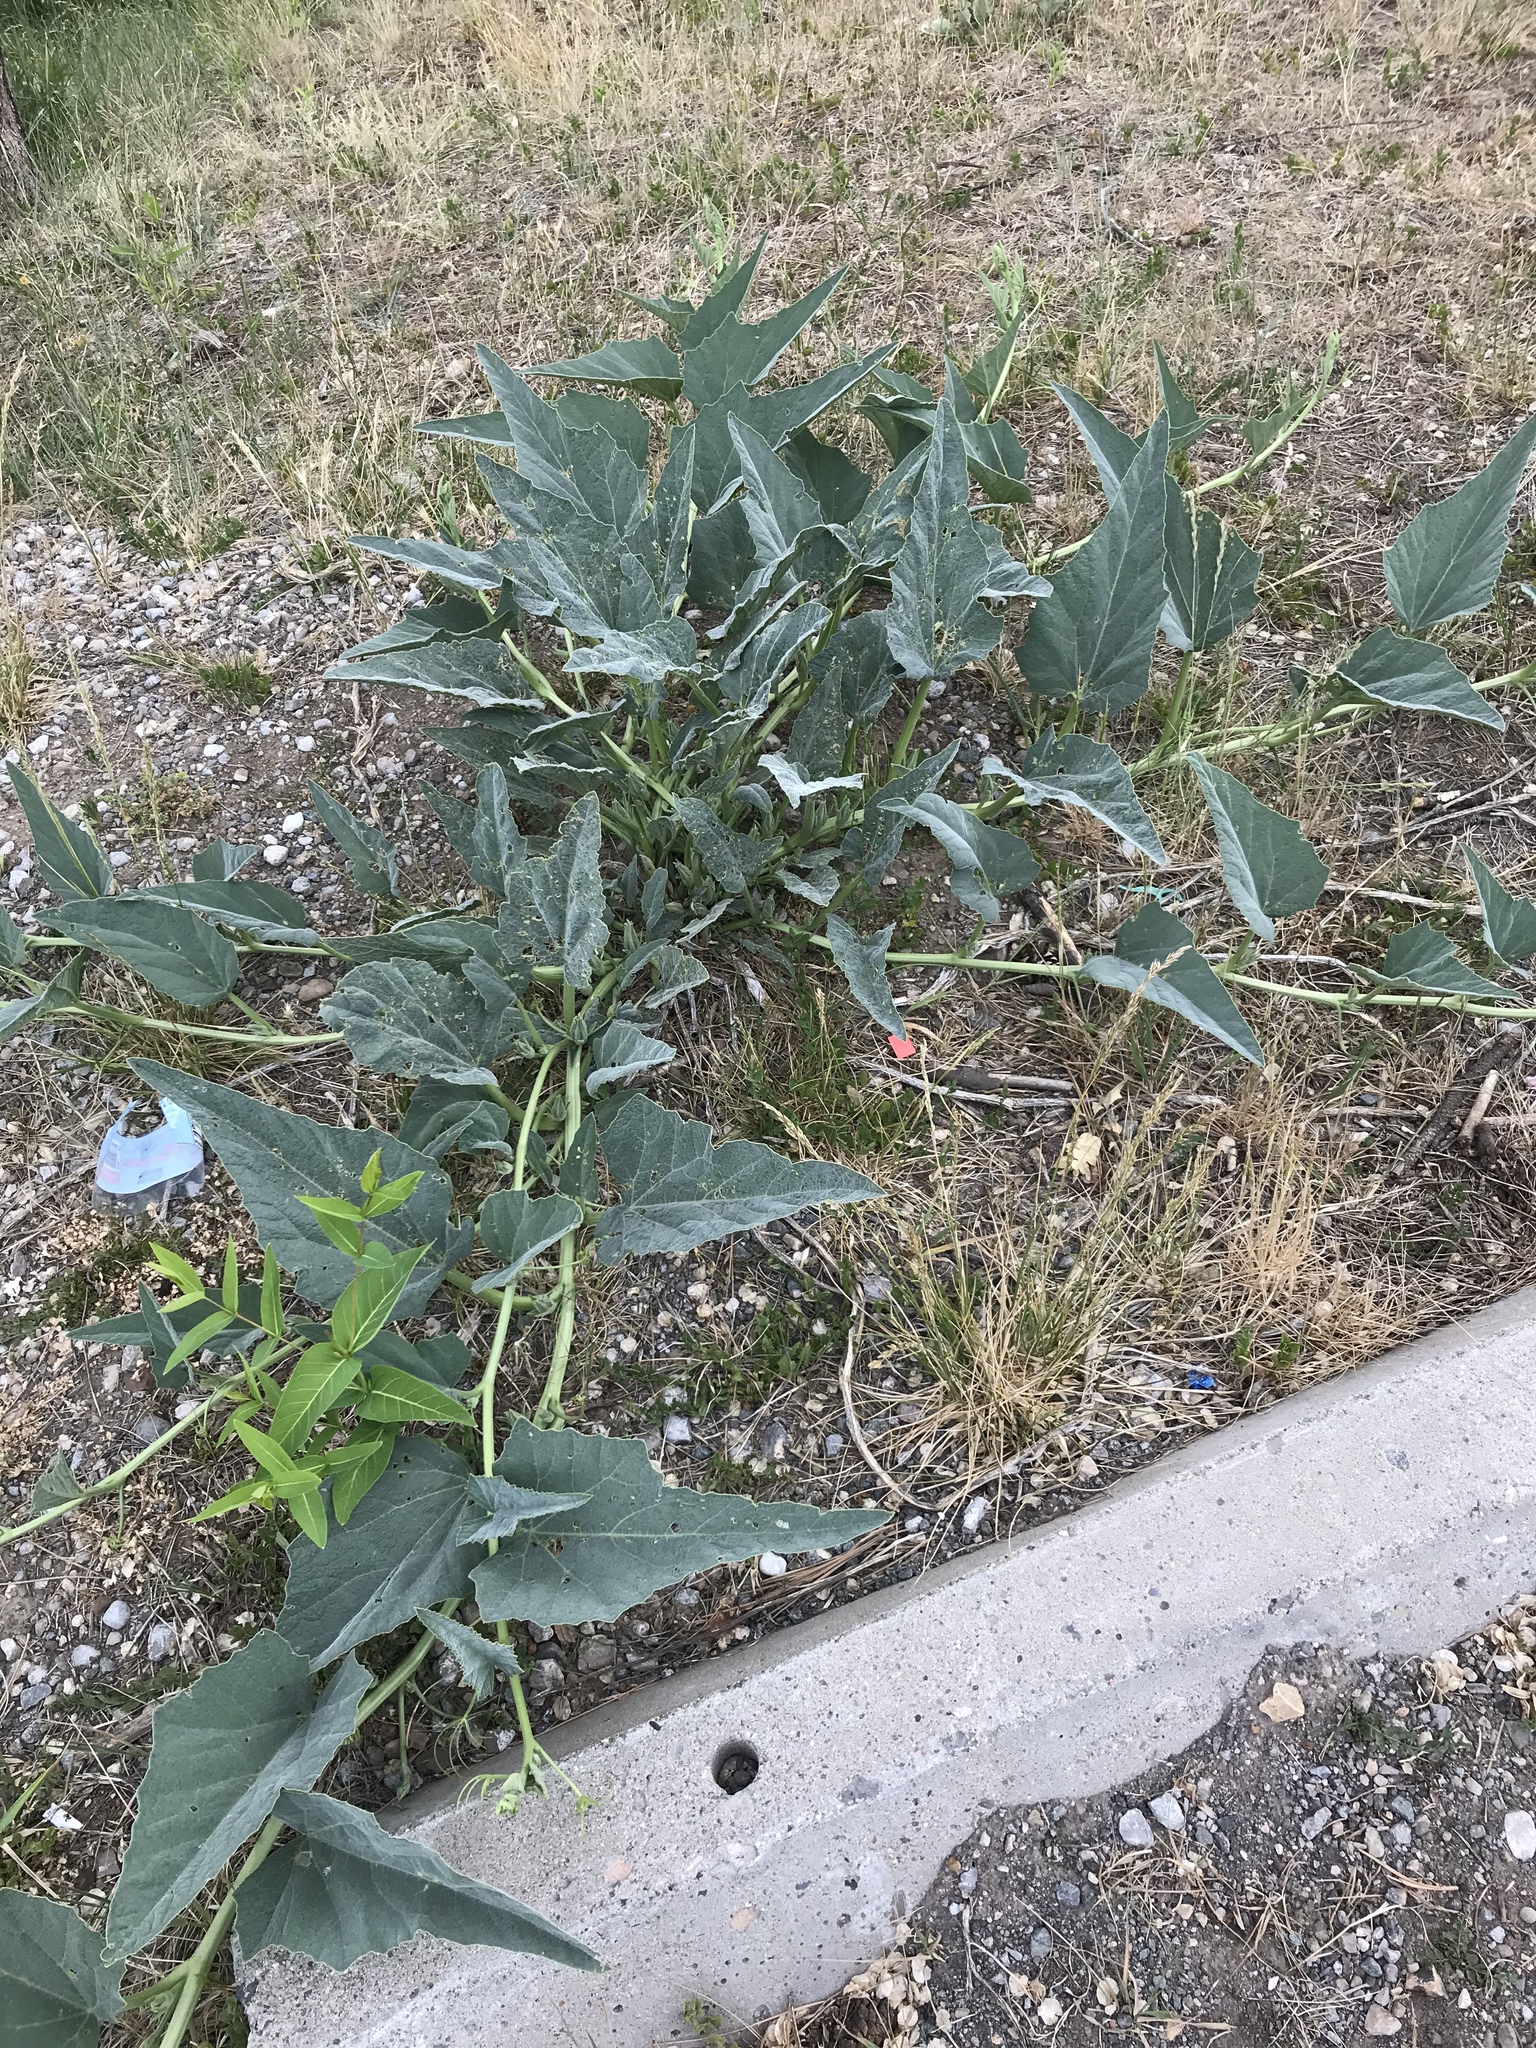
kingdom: Plantae
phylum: Tracheophyta
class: Magnoliopsida
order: Cucurbitales
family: Cucurbitaceae
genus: Cucurbita
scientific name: Cucurbita foetidissima
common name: Buffalo gourd
